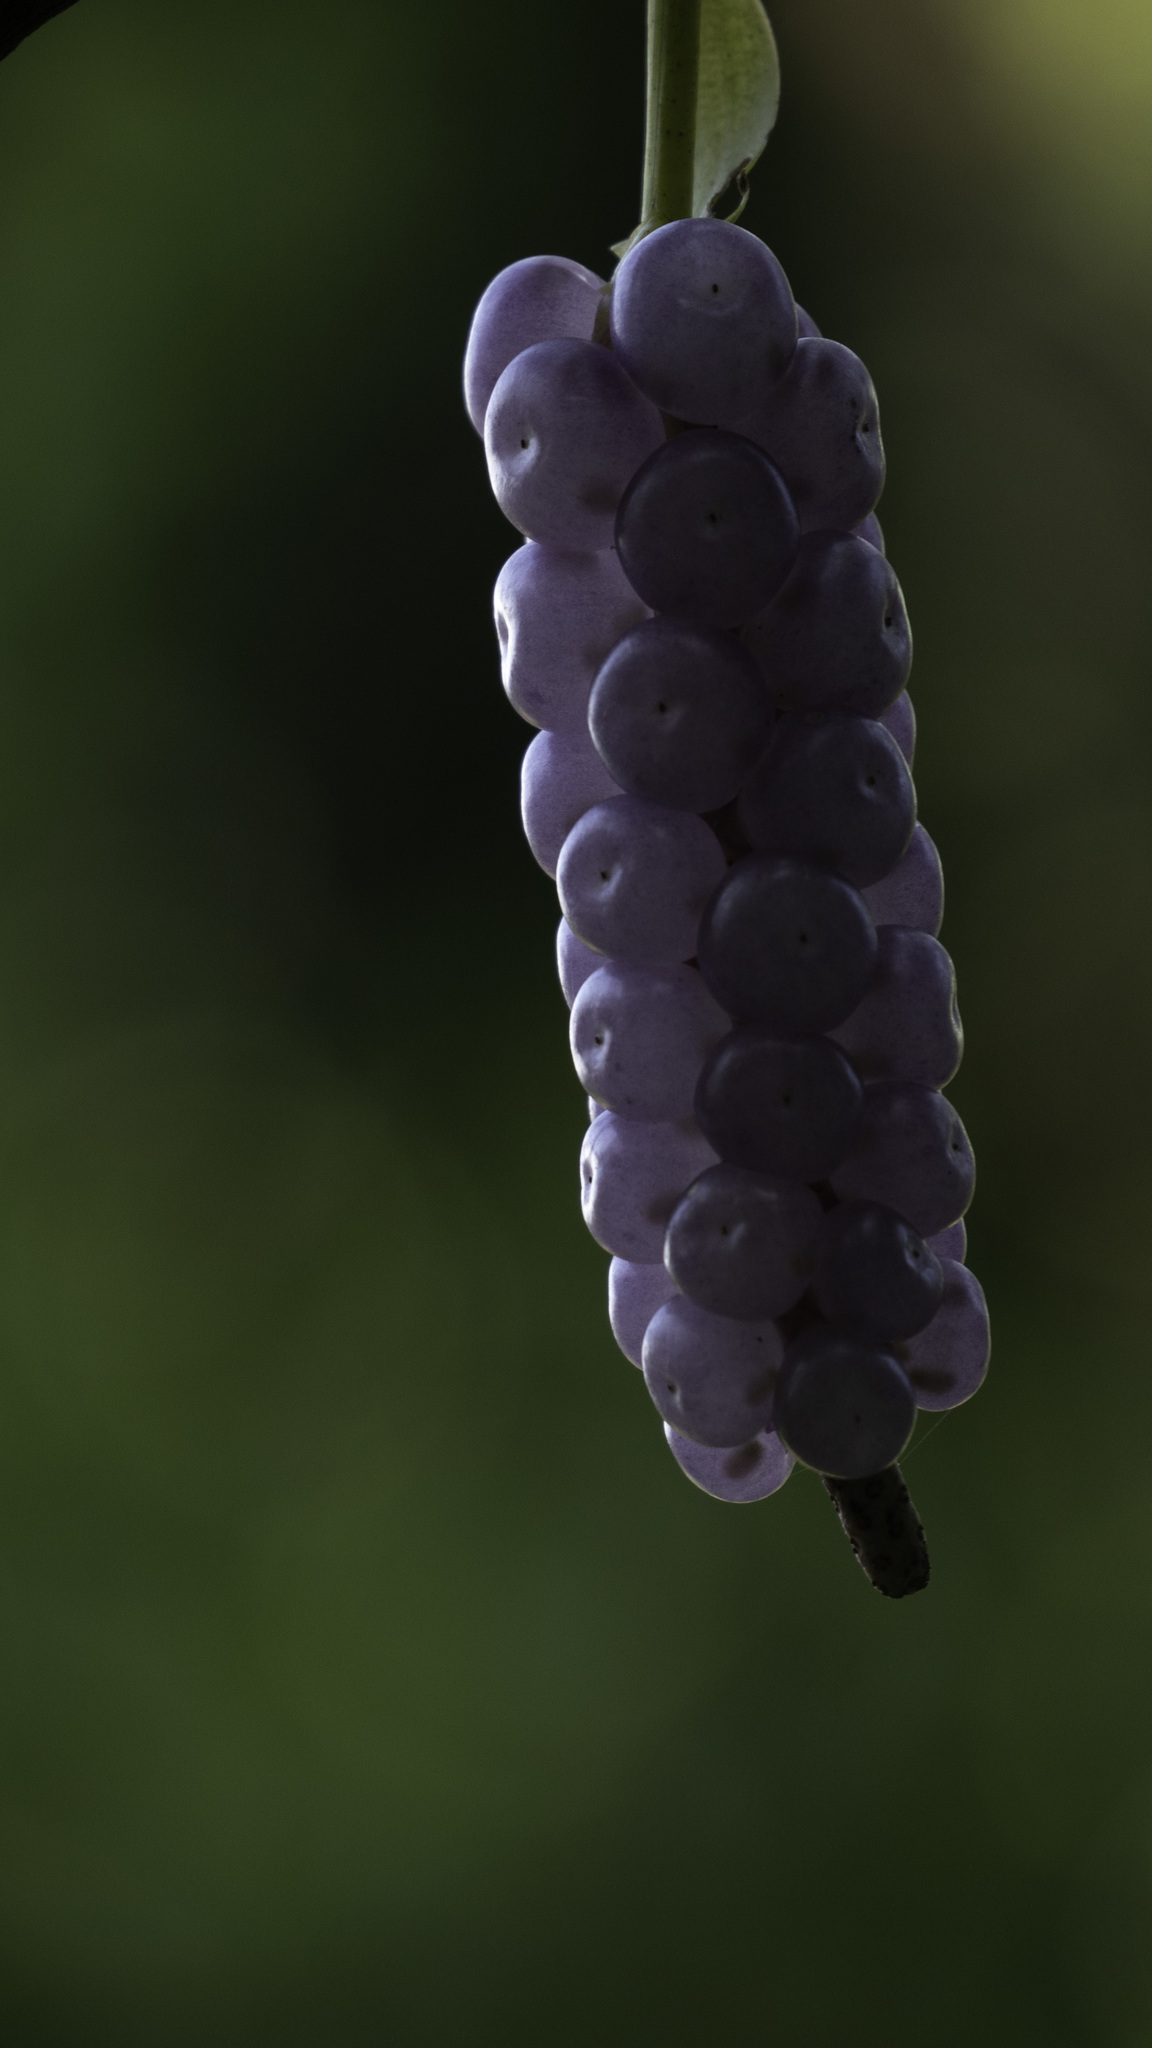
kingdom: Plantae
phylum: Tracheophyta
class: Liliopsida
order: Alismatales
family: Araceae
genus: Anthurium
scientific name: Anthurium scandens
